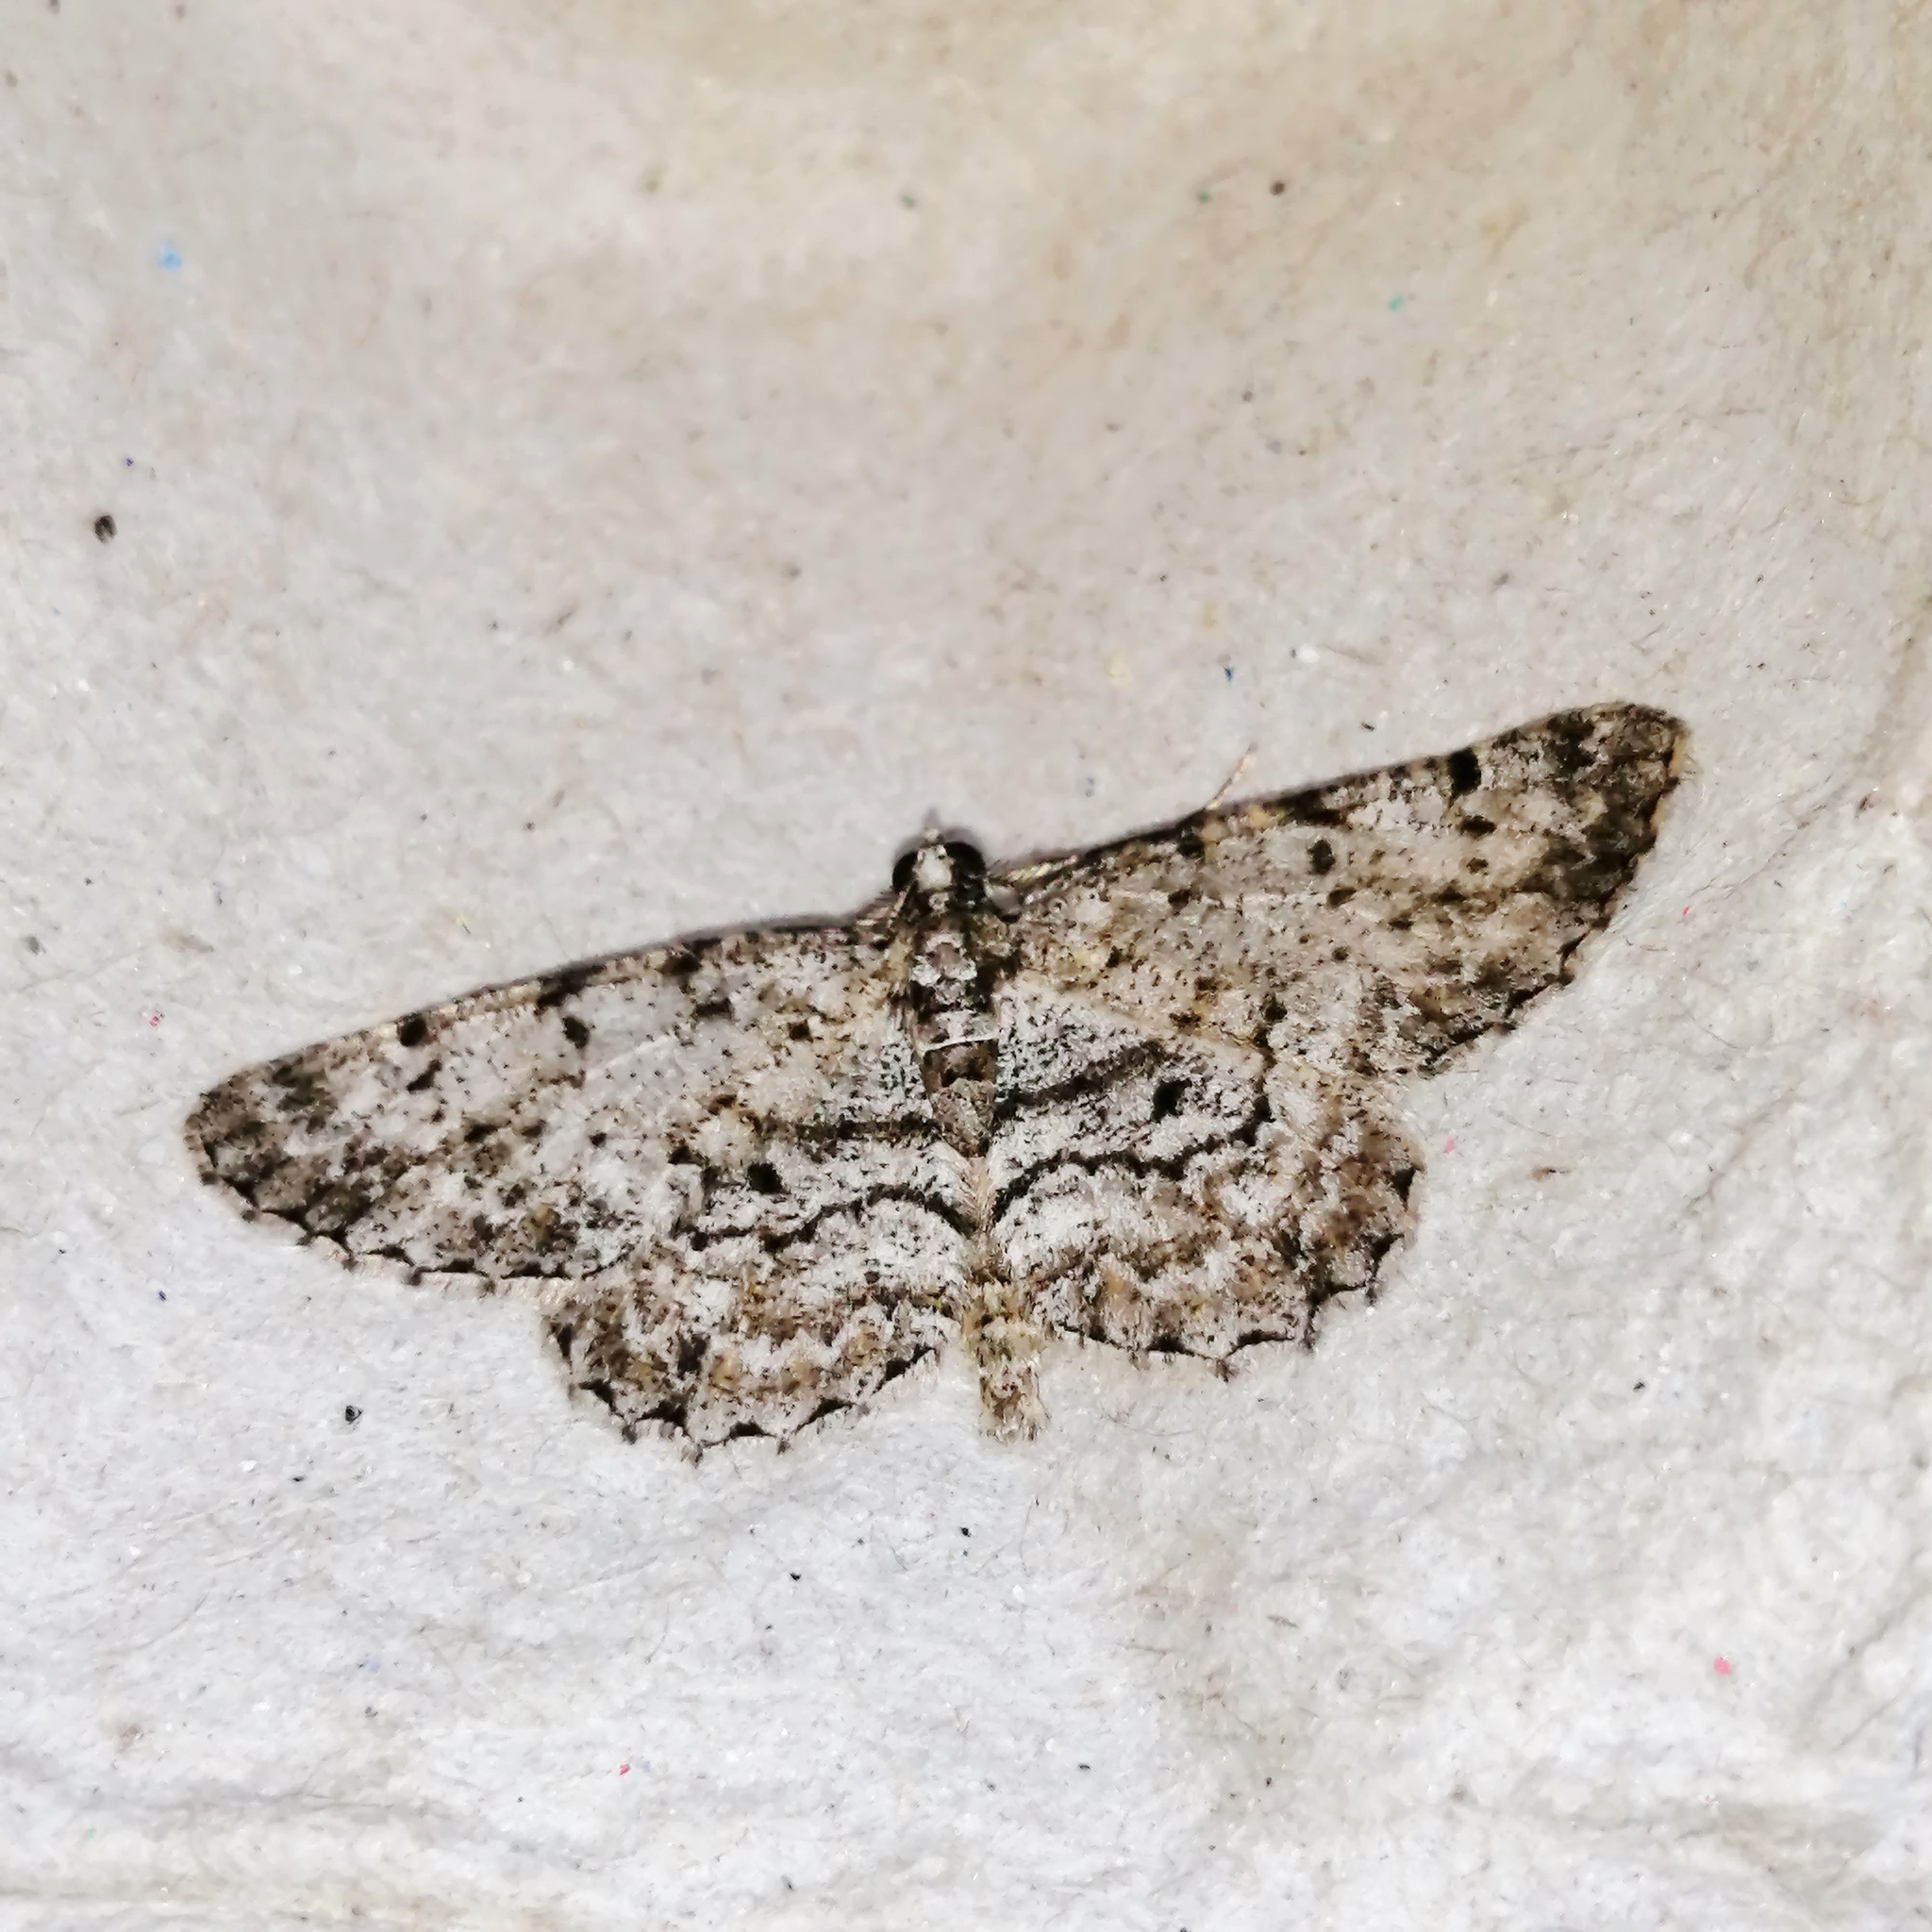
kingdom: Animalia
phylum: Arthropoda
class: Insecta
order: Lepidoptera
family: Geometridae
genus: Protoboarmia
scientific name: Protoboarmia porcelaria
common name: Porcelain gray
